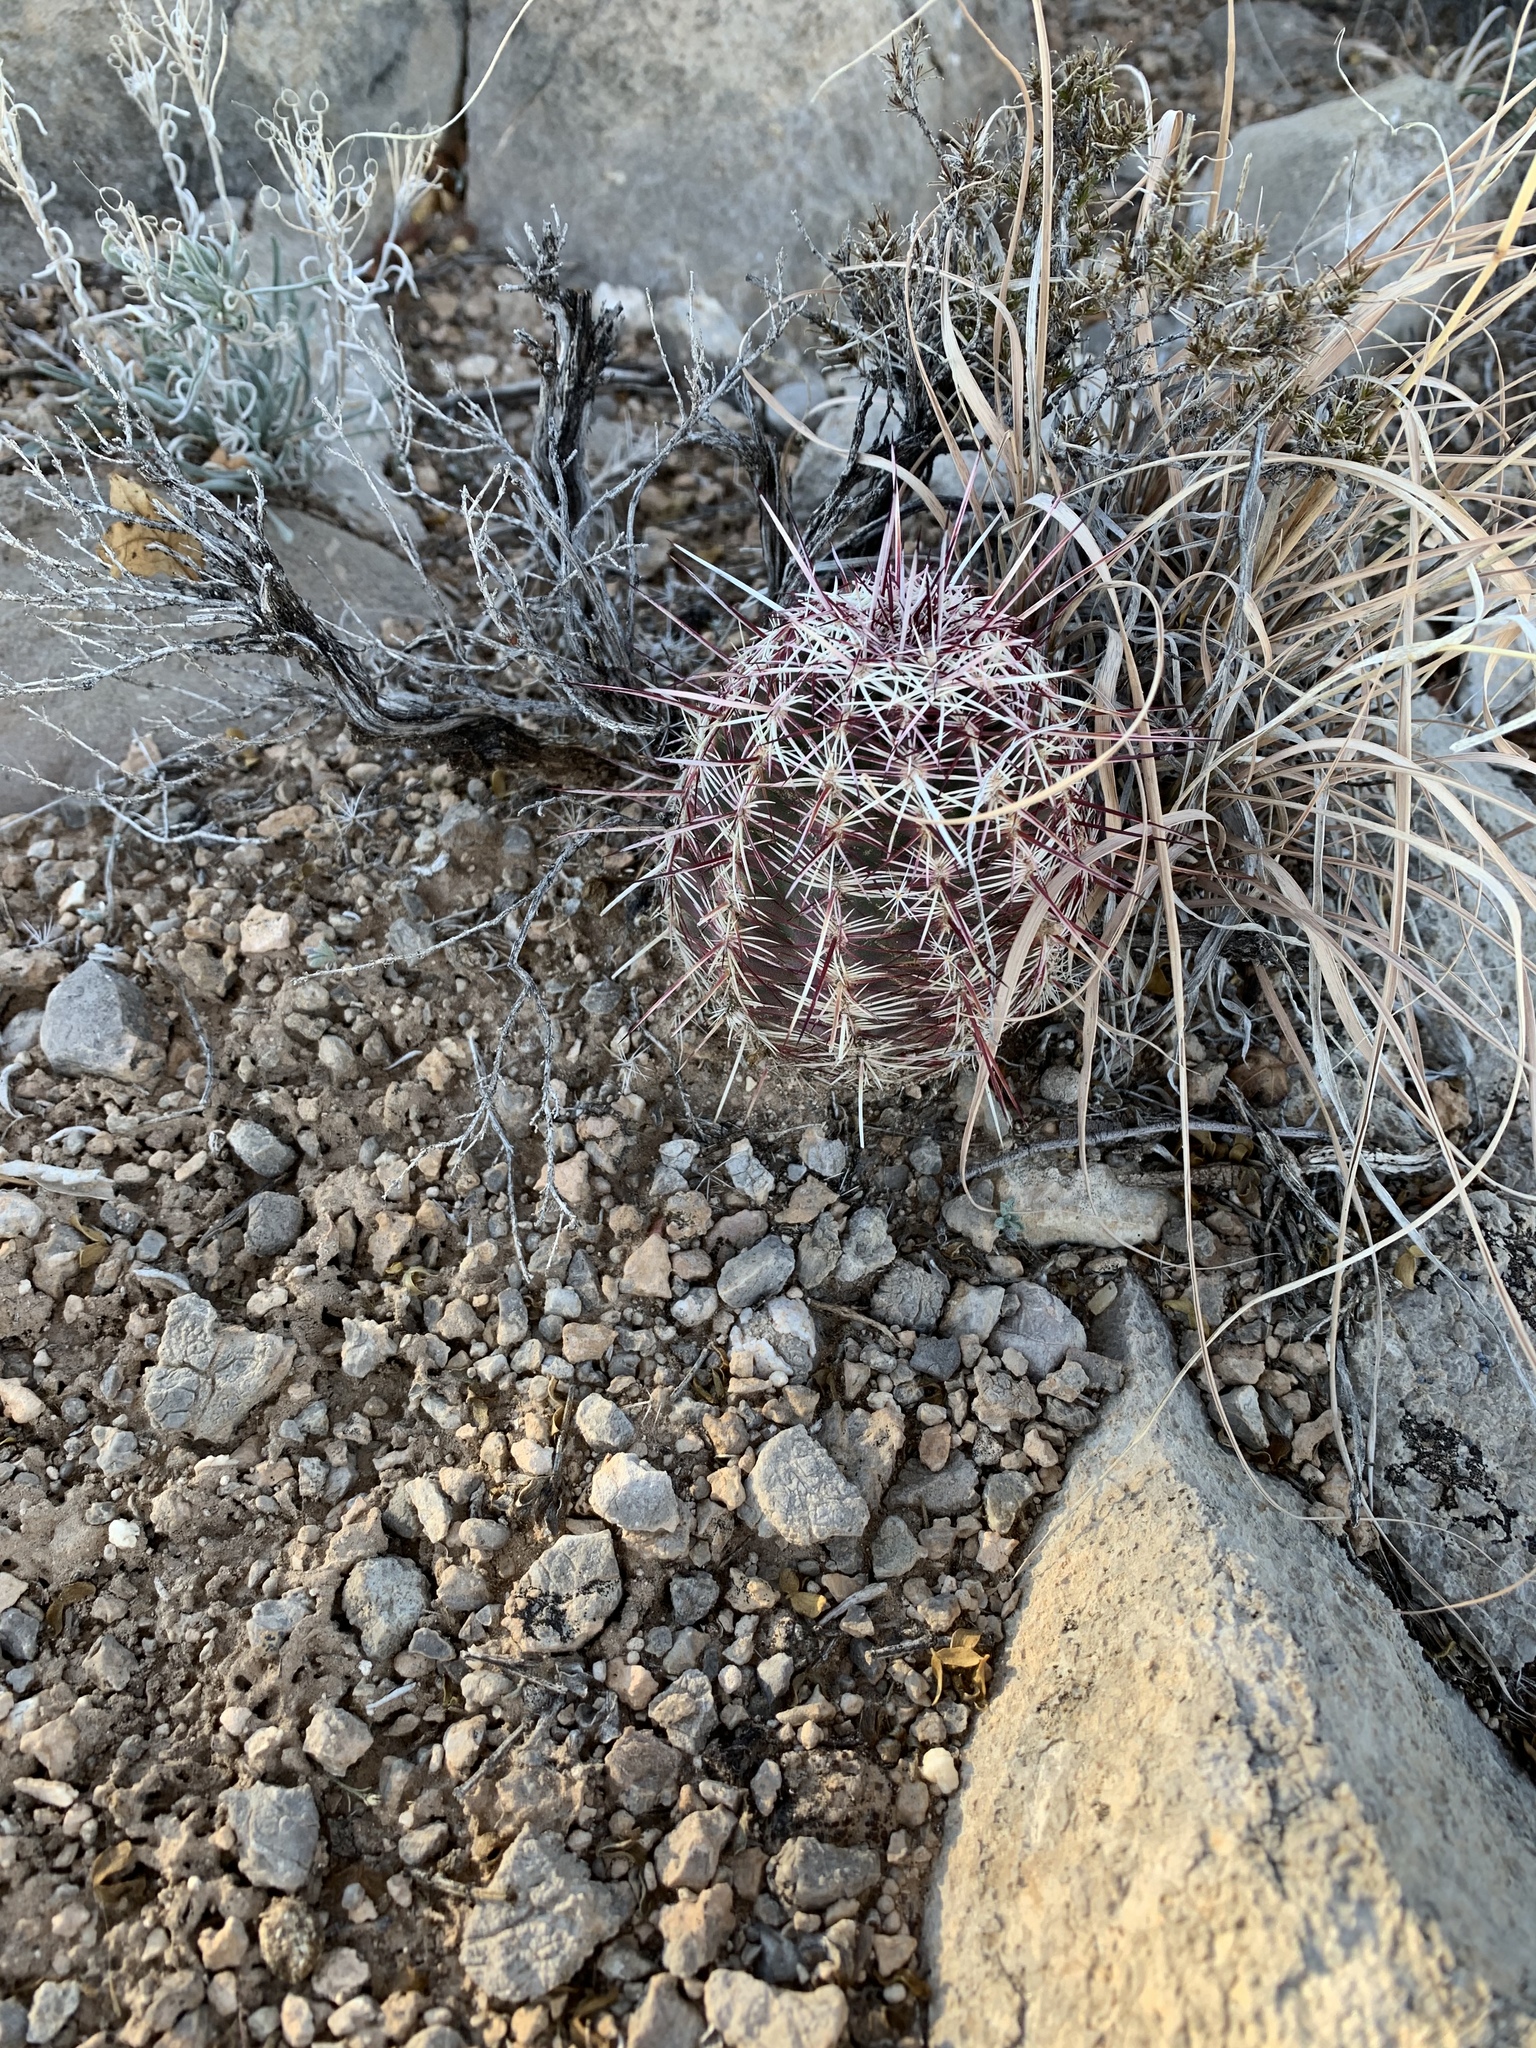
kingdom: Plantae
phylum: Tracheophyta
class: Magnoliopsida
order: Caryophyllales
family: Cactaceae
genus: Echinocereus
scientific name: Echinocereus viridiflorus
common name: Nylon hedgehog cactus
